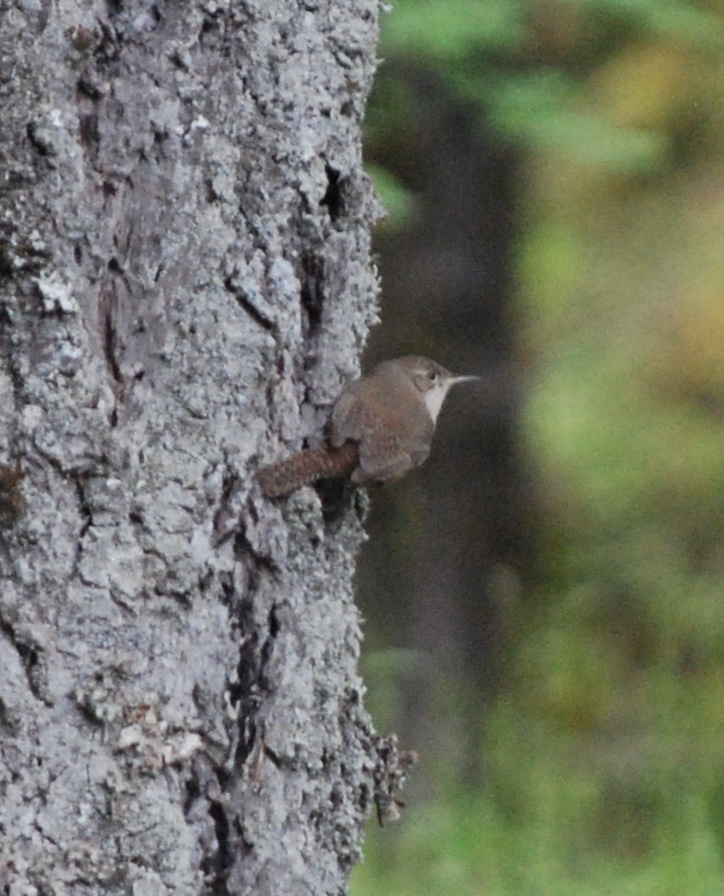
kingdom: Animalia
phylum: Chordata
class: Aves
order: Passeriformes
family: Troglodytidae
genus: Troglodytes
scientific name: Troglodytes aedon
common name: House wren
